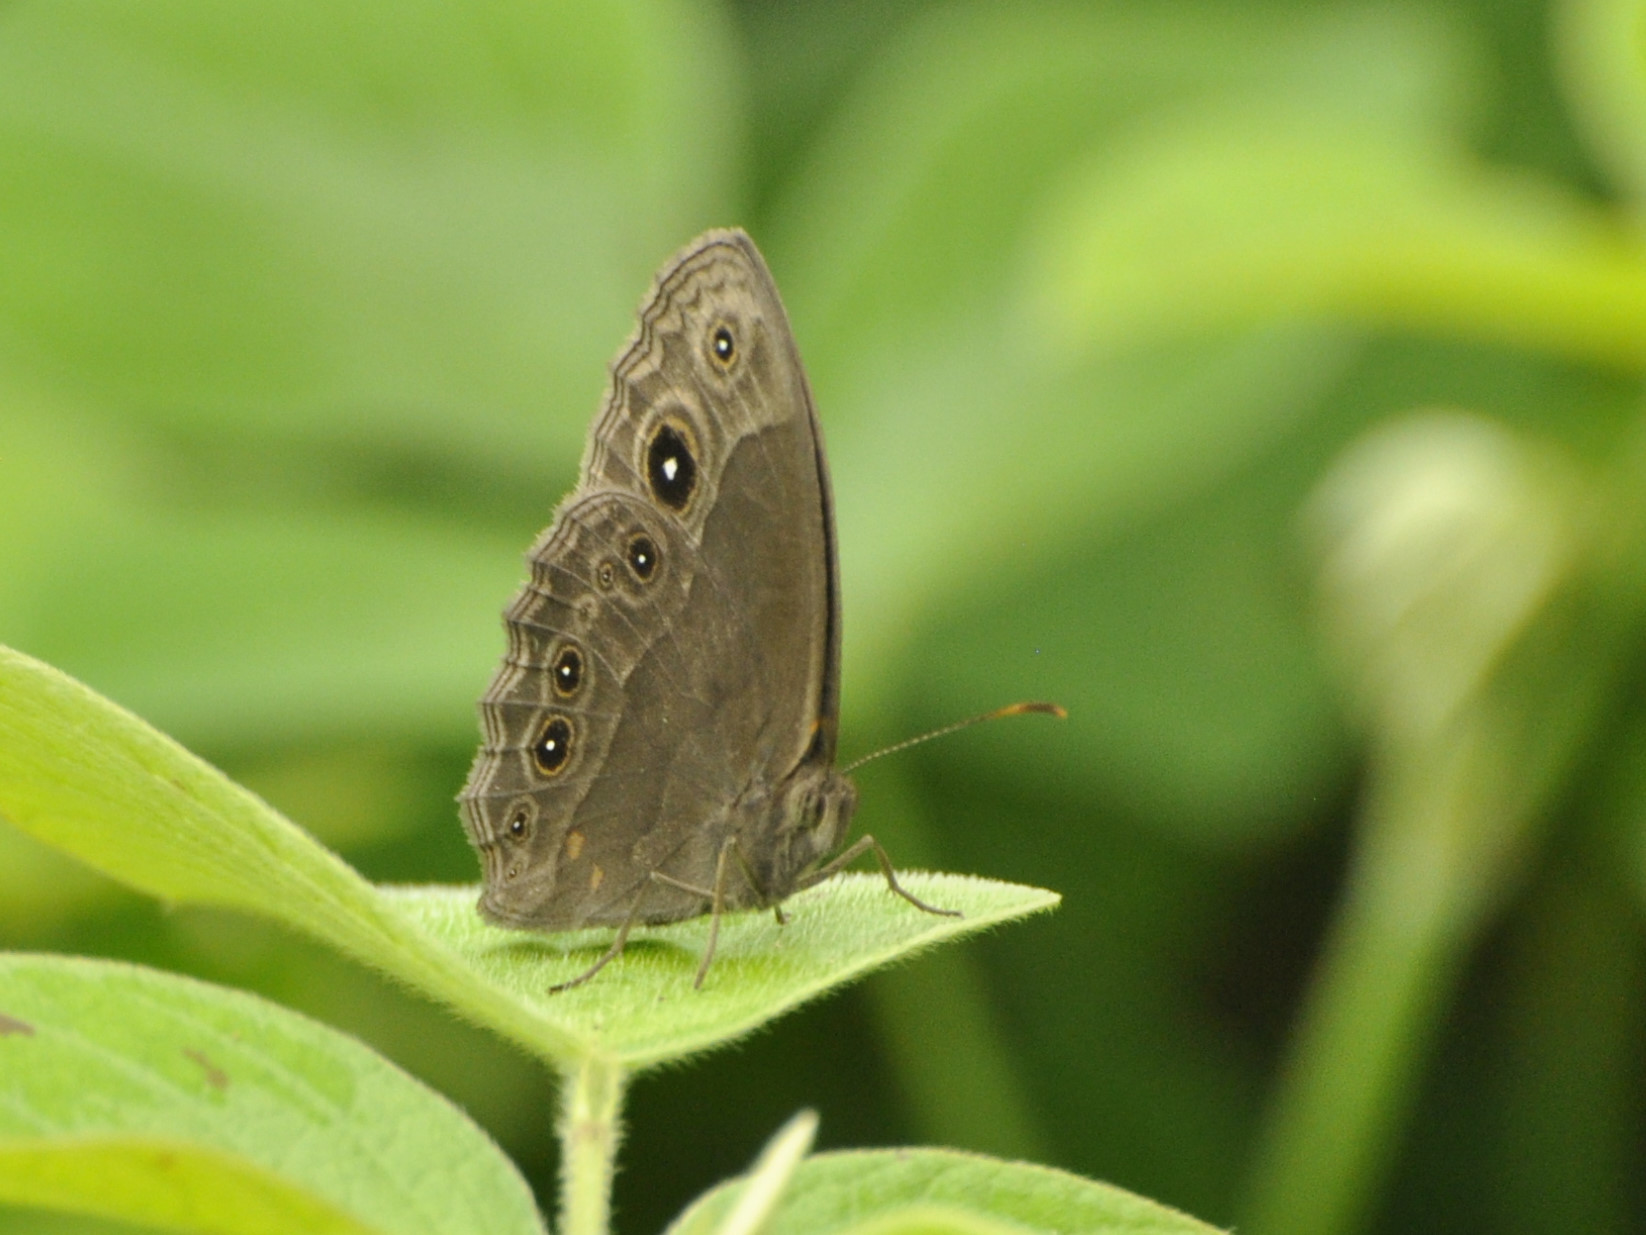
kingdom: Animalia
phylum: Arthropoda
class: Insecta
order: Lepidoptera
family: Nymphalidae
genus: Bicyclus
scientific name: Bicyclus cottrelli
